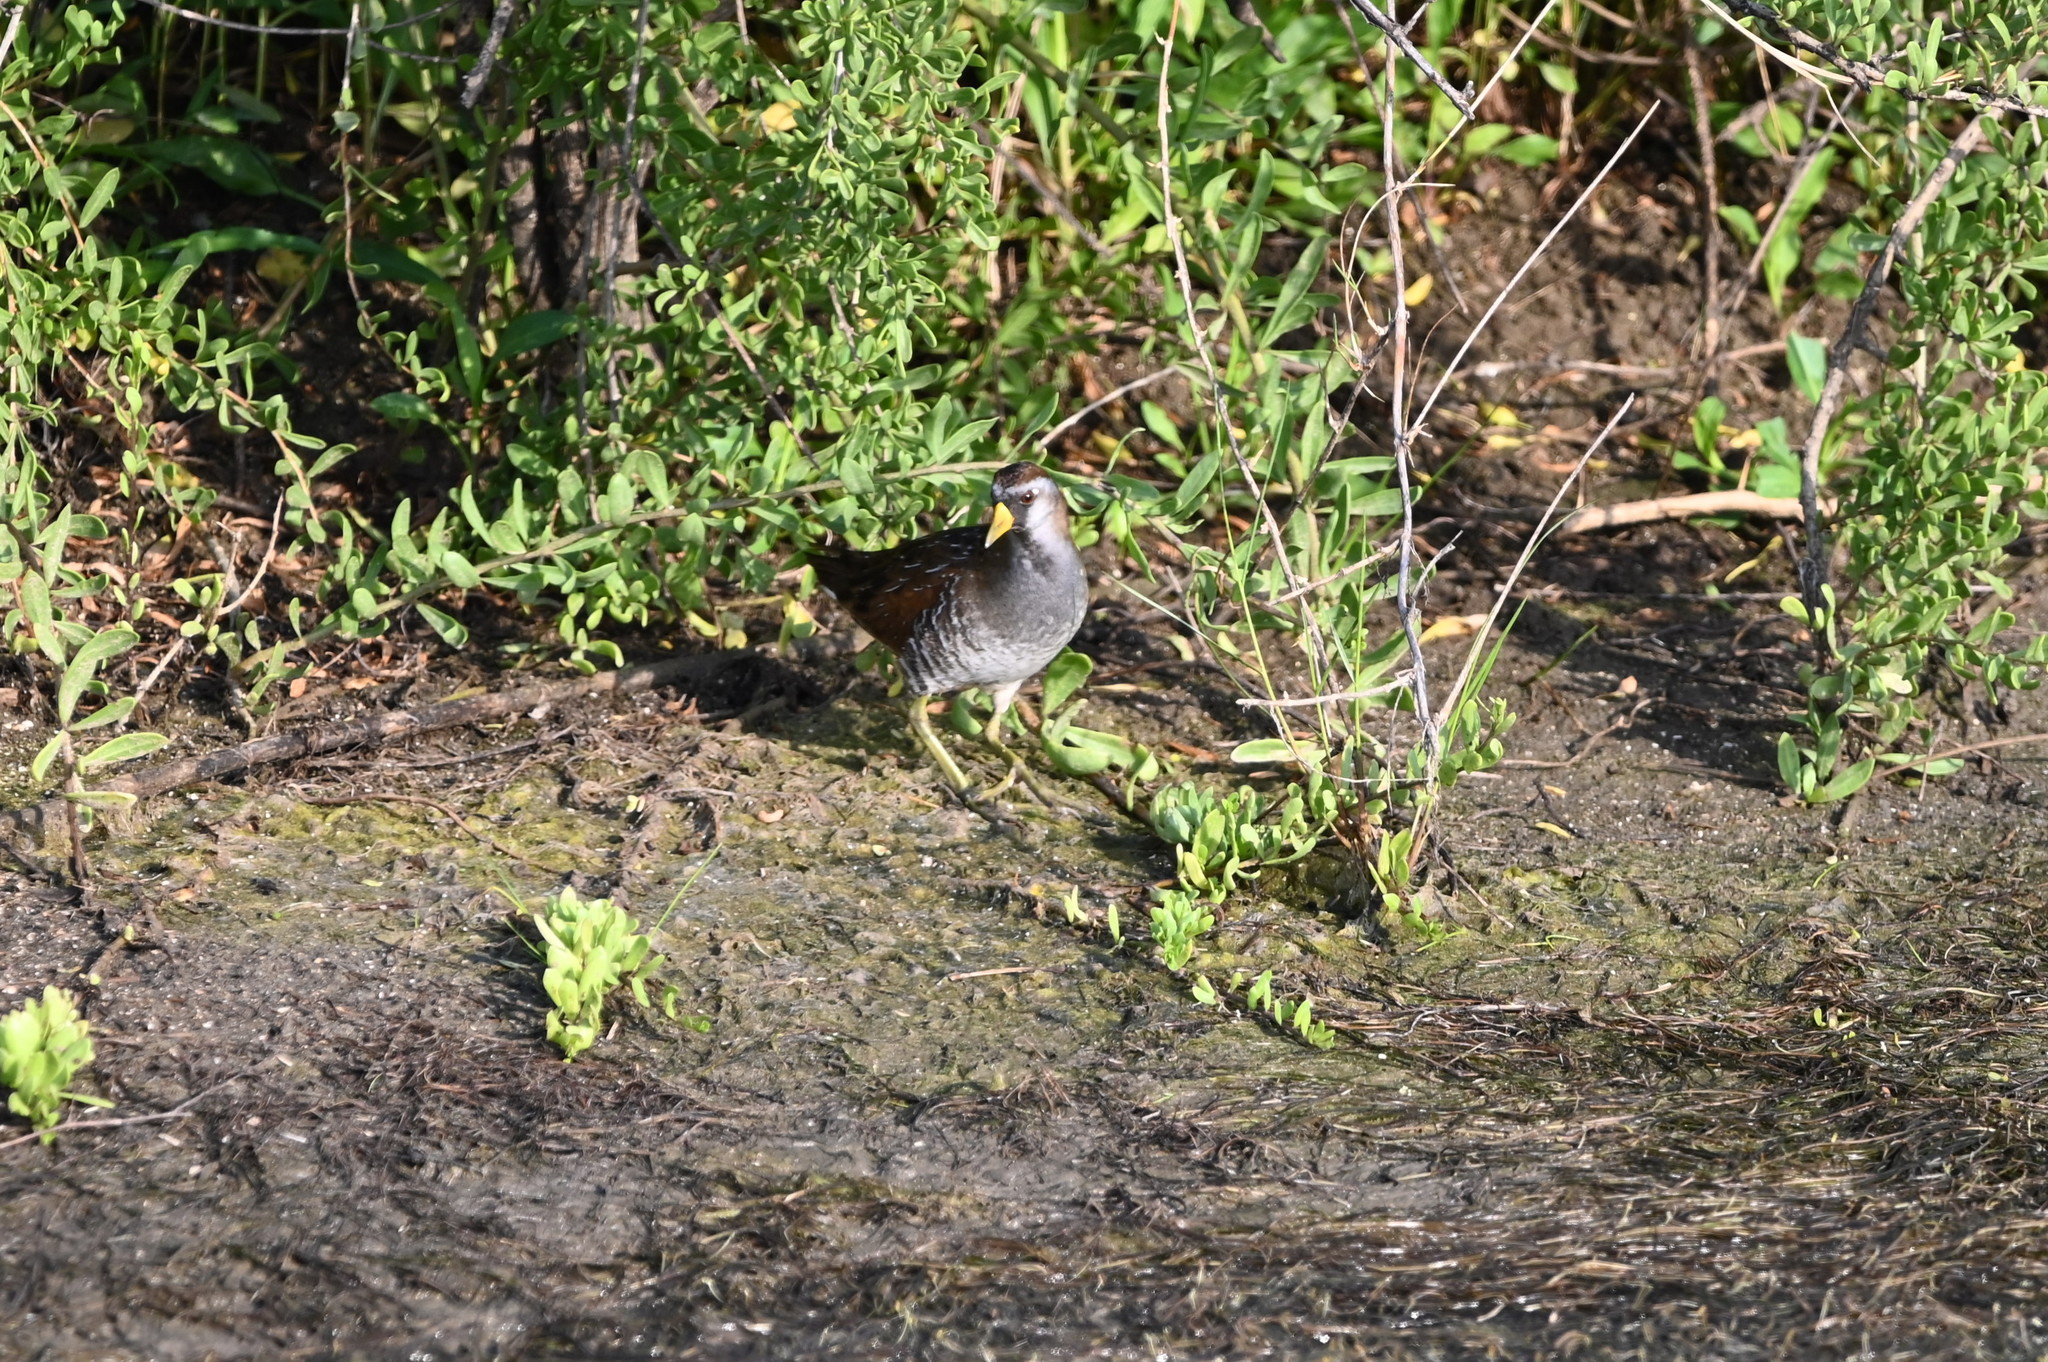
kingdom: Animalia
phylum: Chordata
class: Aves
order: Gruiformes
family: Rallidae
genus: Porzana
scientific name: Porzana carolina
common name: Sora
